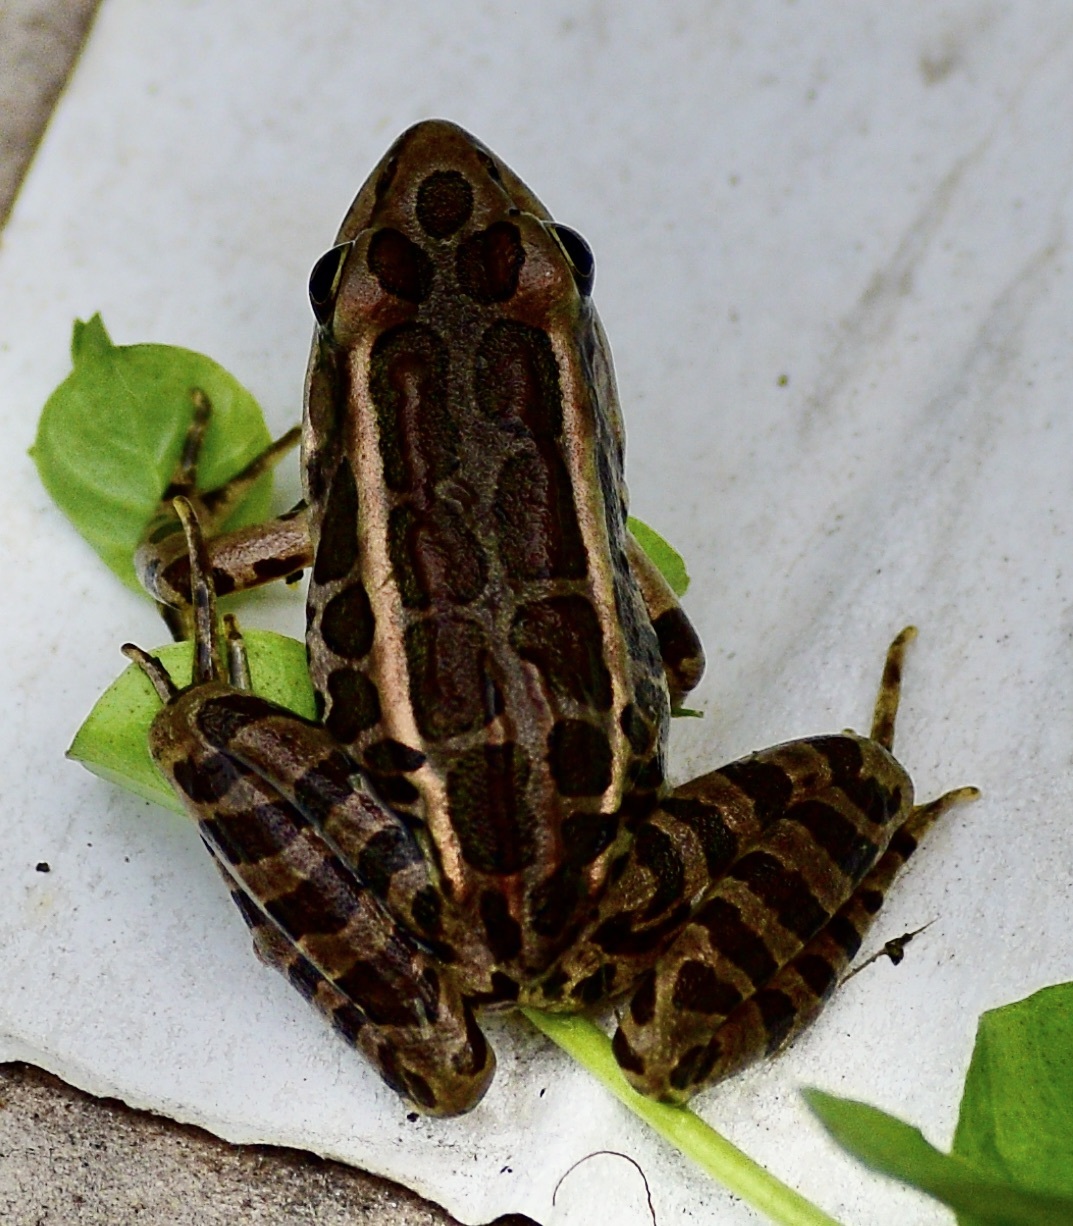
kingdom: Animalia
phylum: Chordata
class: Amphibia
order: Anura
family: Ranidae
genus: Lithobates
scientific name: Lithobates palustris
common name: Pickerel frog
